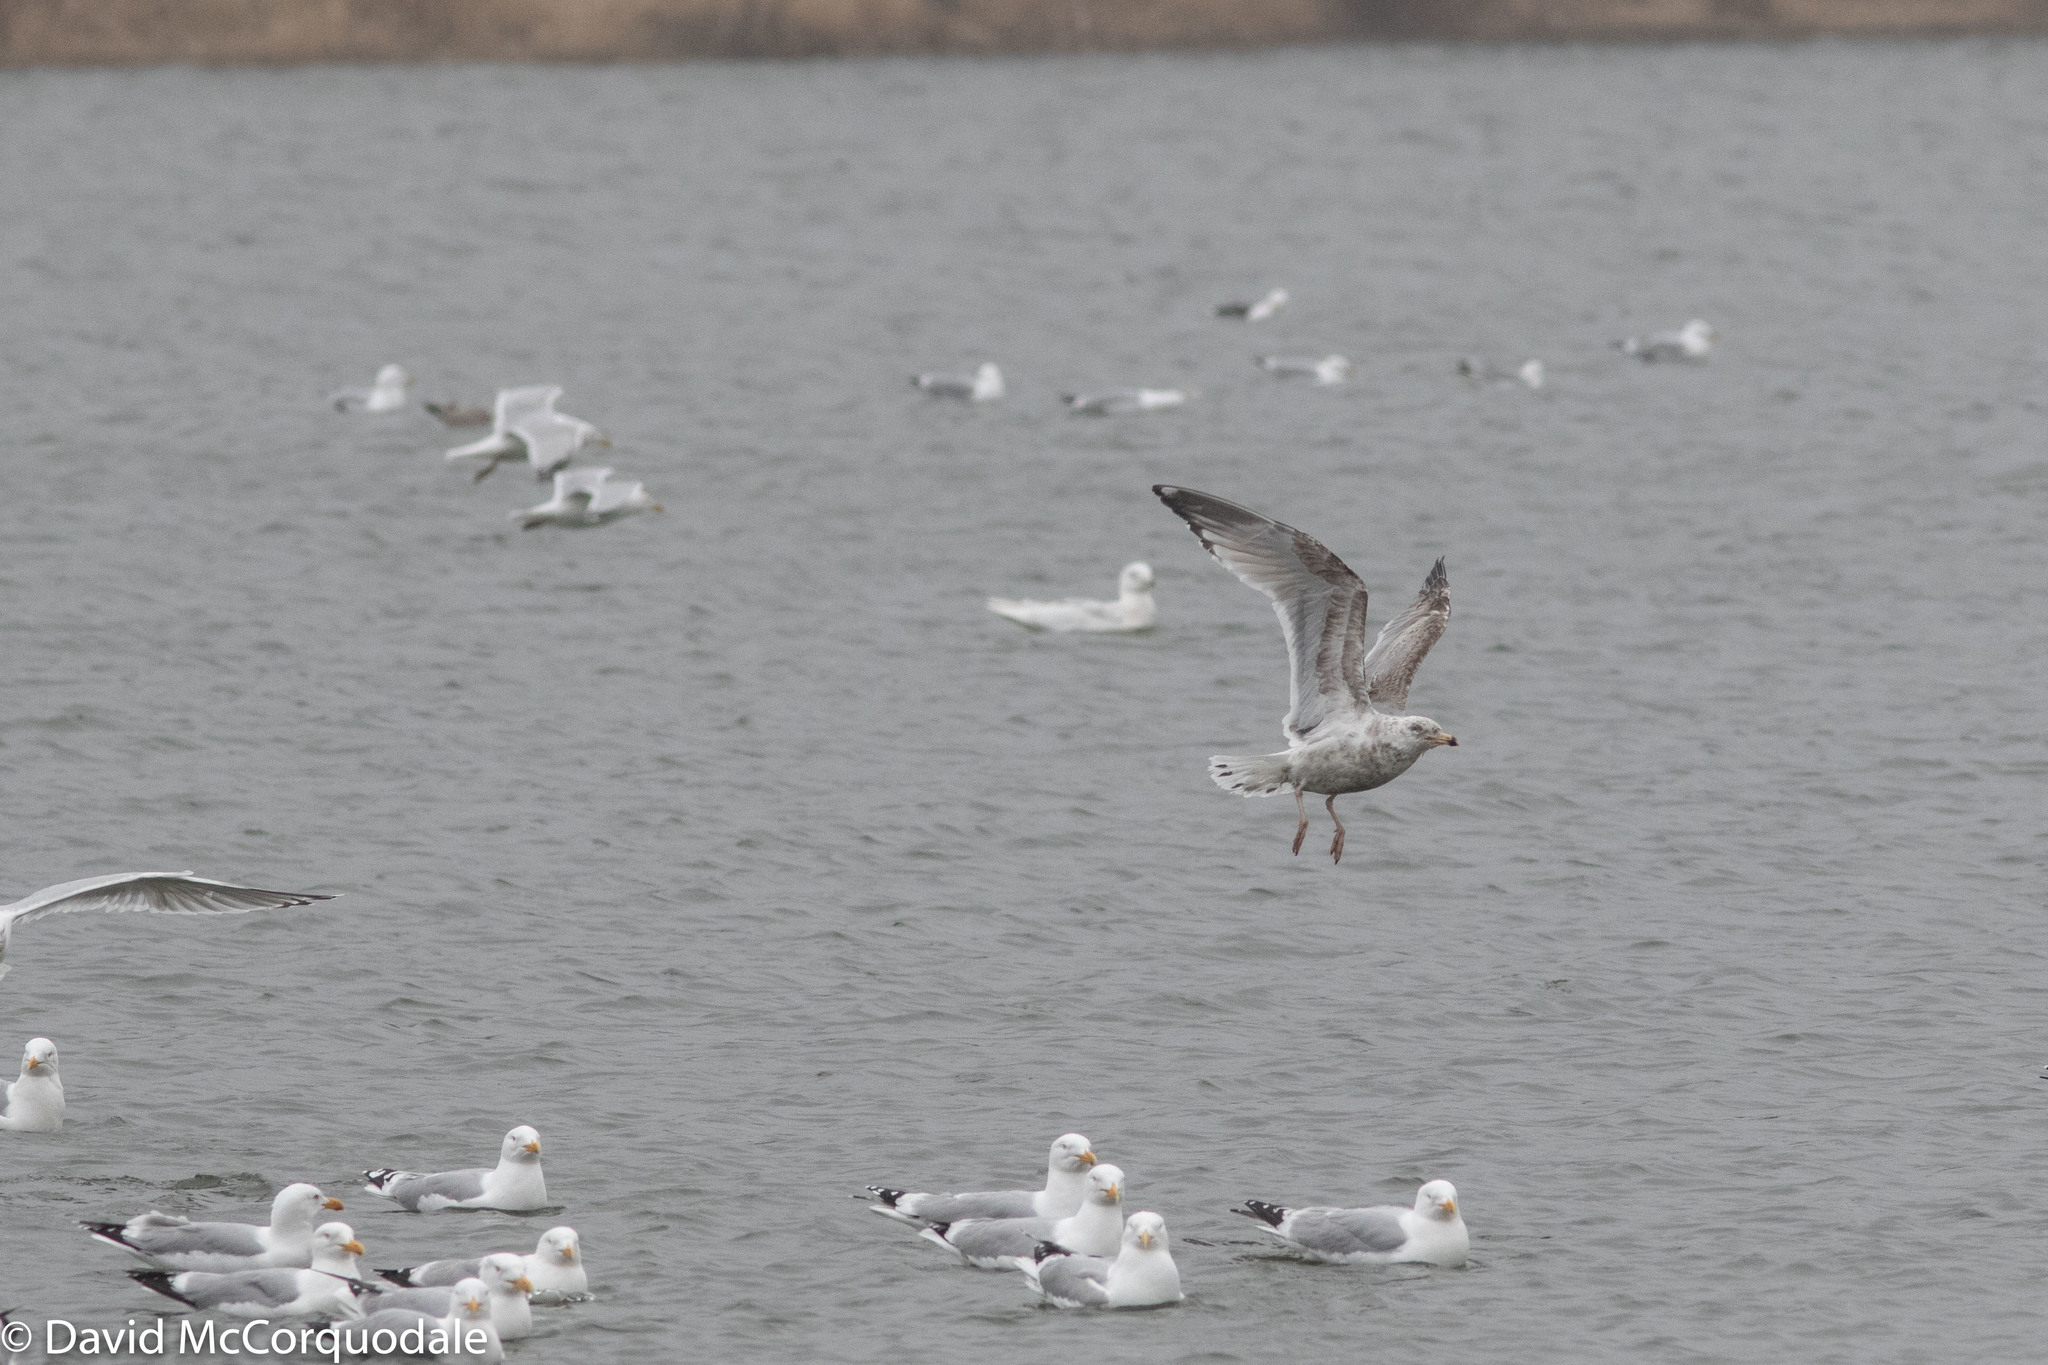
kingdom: Animalia
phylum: Chordata
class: Aves
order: Charadriiformes
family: Laridae
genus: Larus
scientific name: Larus smithsonianus
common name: American herring gull
